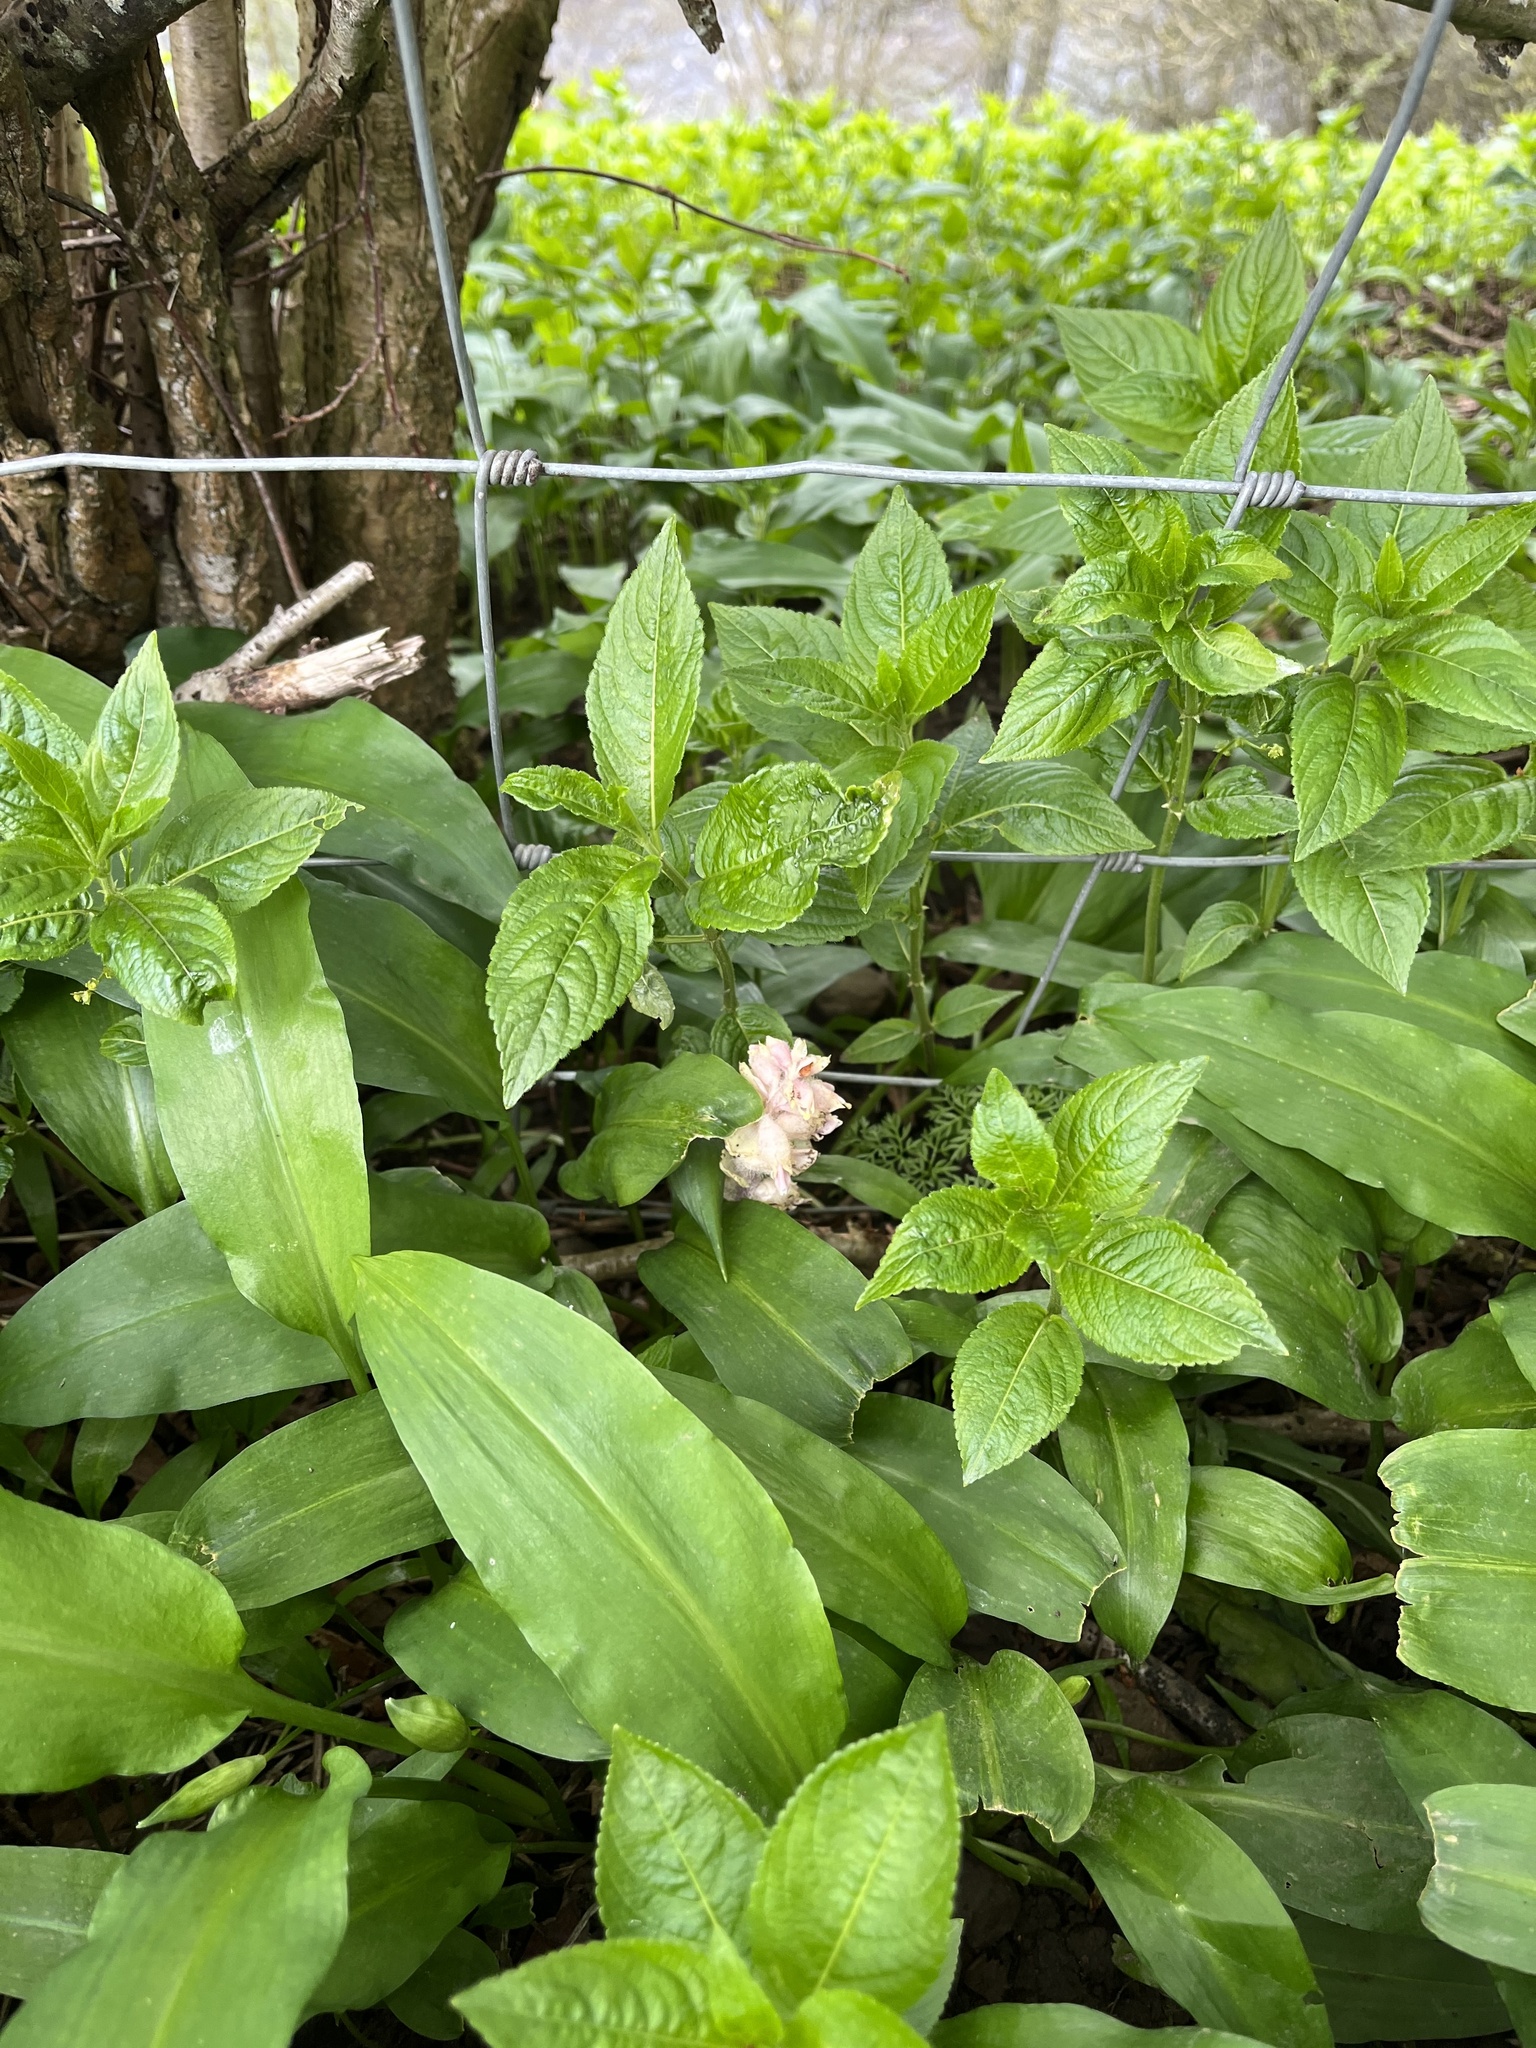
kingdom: Plantae
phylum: Tracheophyta
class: Magnoliopsida
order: Lamiales
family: Orobanchaceae
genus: Lathraea
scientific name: Lathraea squamaria
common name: Toothwort
